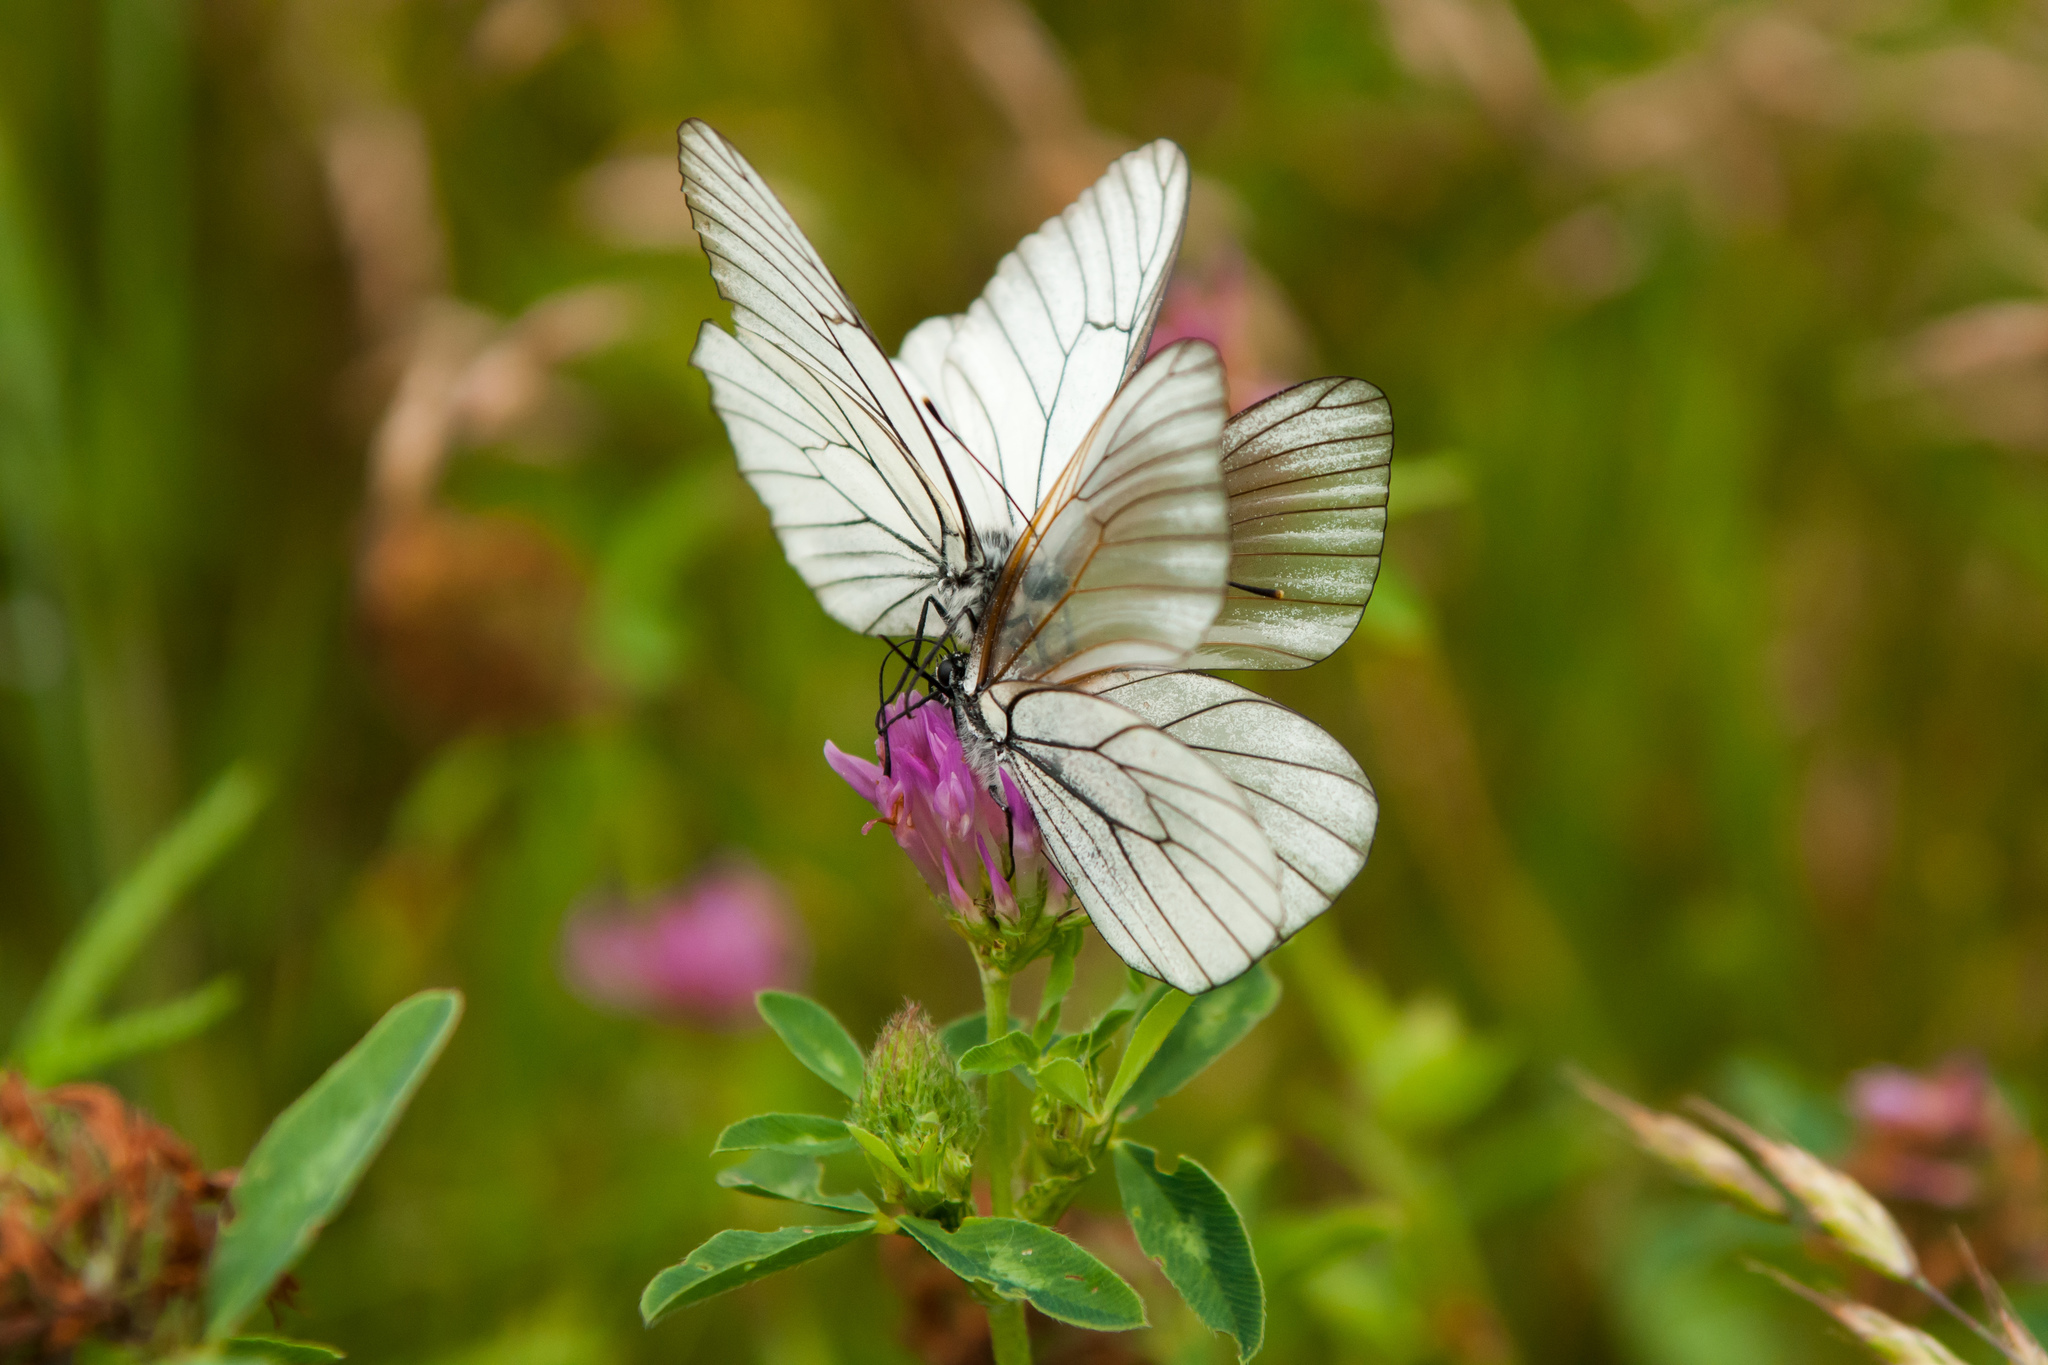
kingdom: Animalia
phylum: Arthropoda
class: Insecta
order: Lepidoptera
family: Pieridae
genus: Aporia
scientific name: Aporia crataegi
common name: Black-veined white
